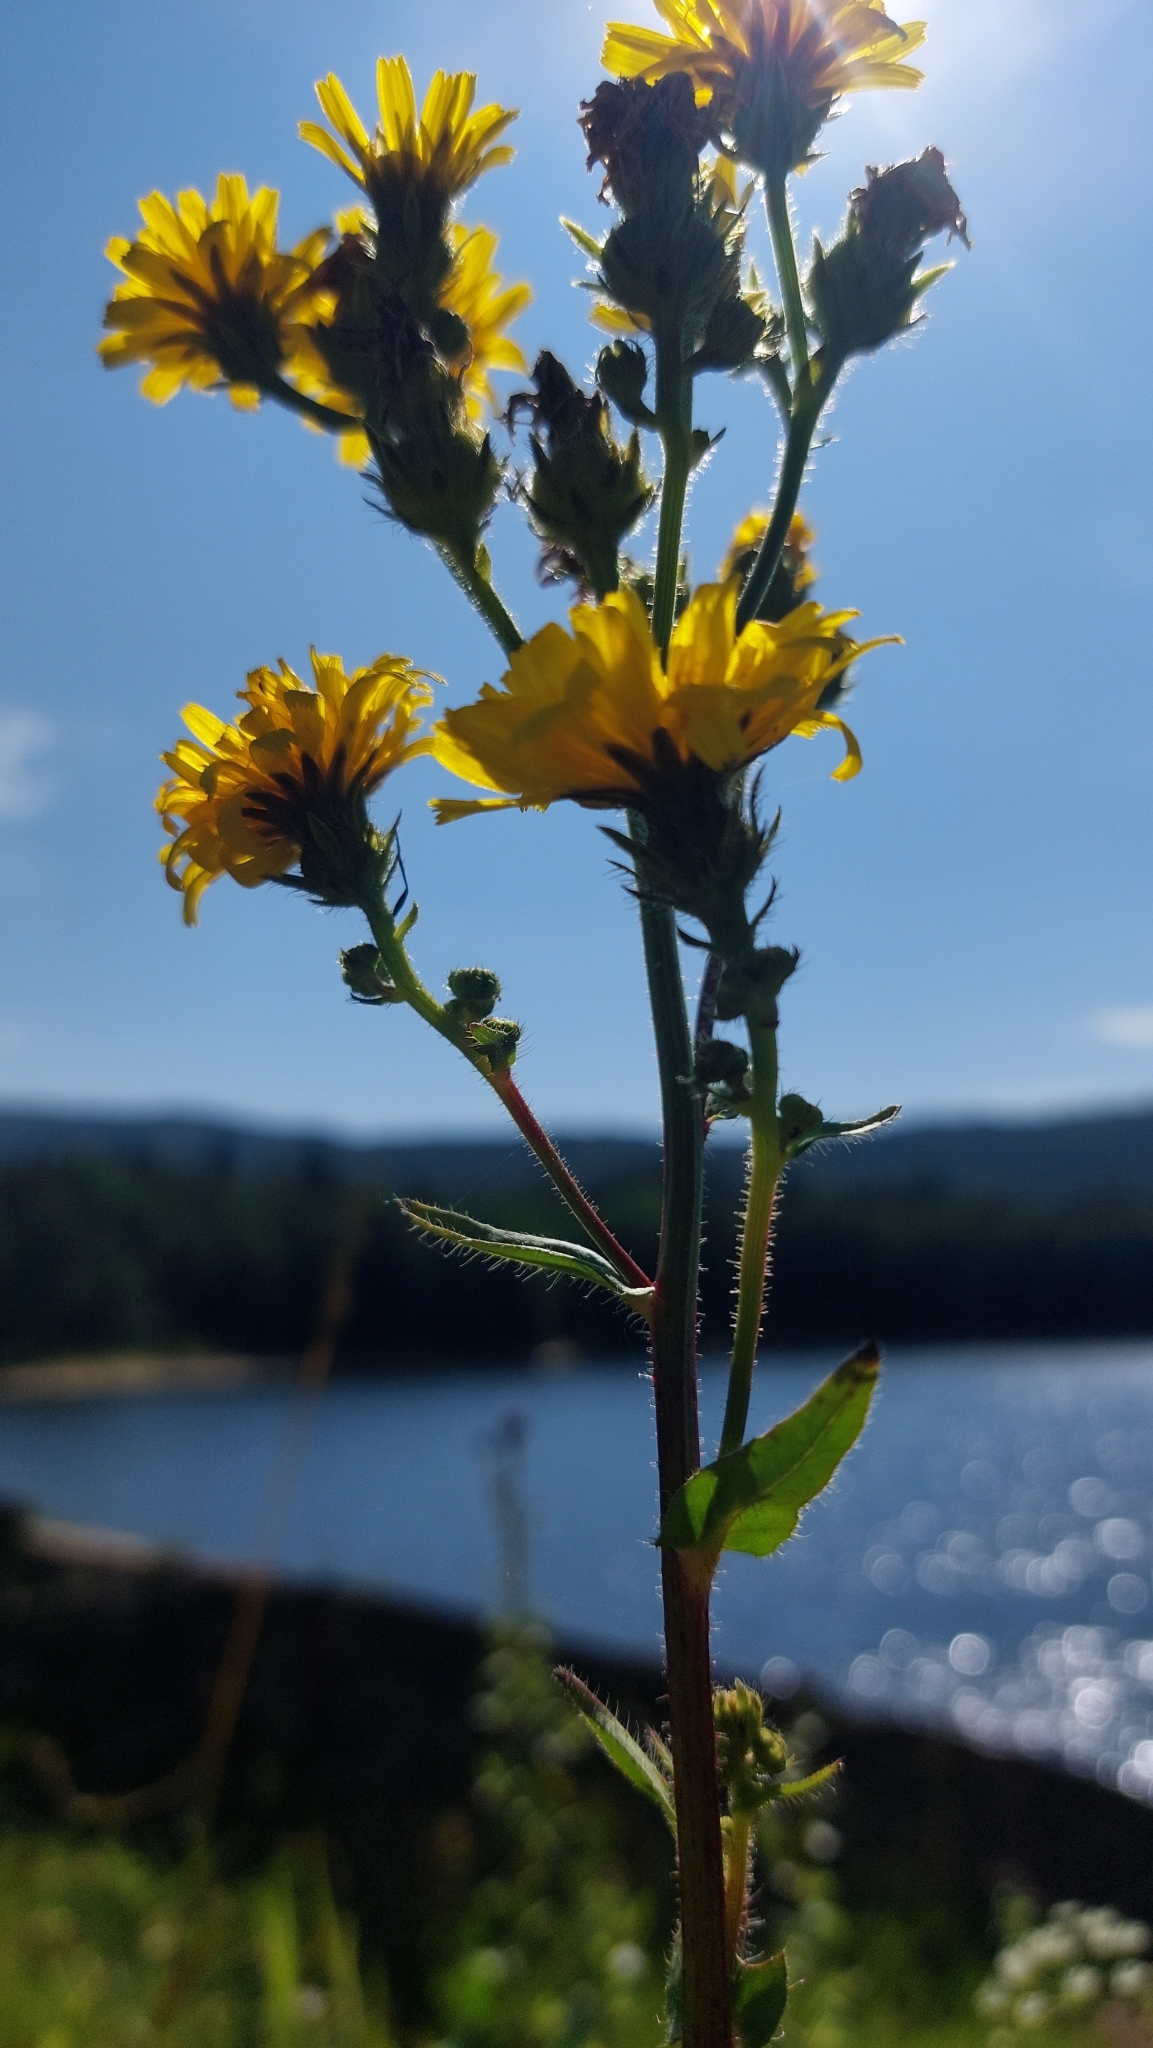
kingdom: Plantae
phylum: Tracheophyta
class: Magnoliopsida
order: Asterales
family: Asteraceae
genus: Picris
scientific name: Picris hieracioides
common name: Hawkweed oxtongue
